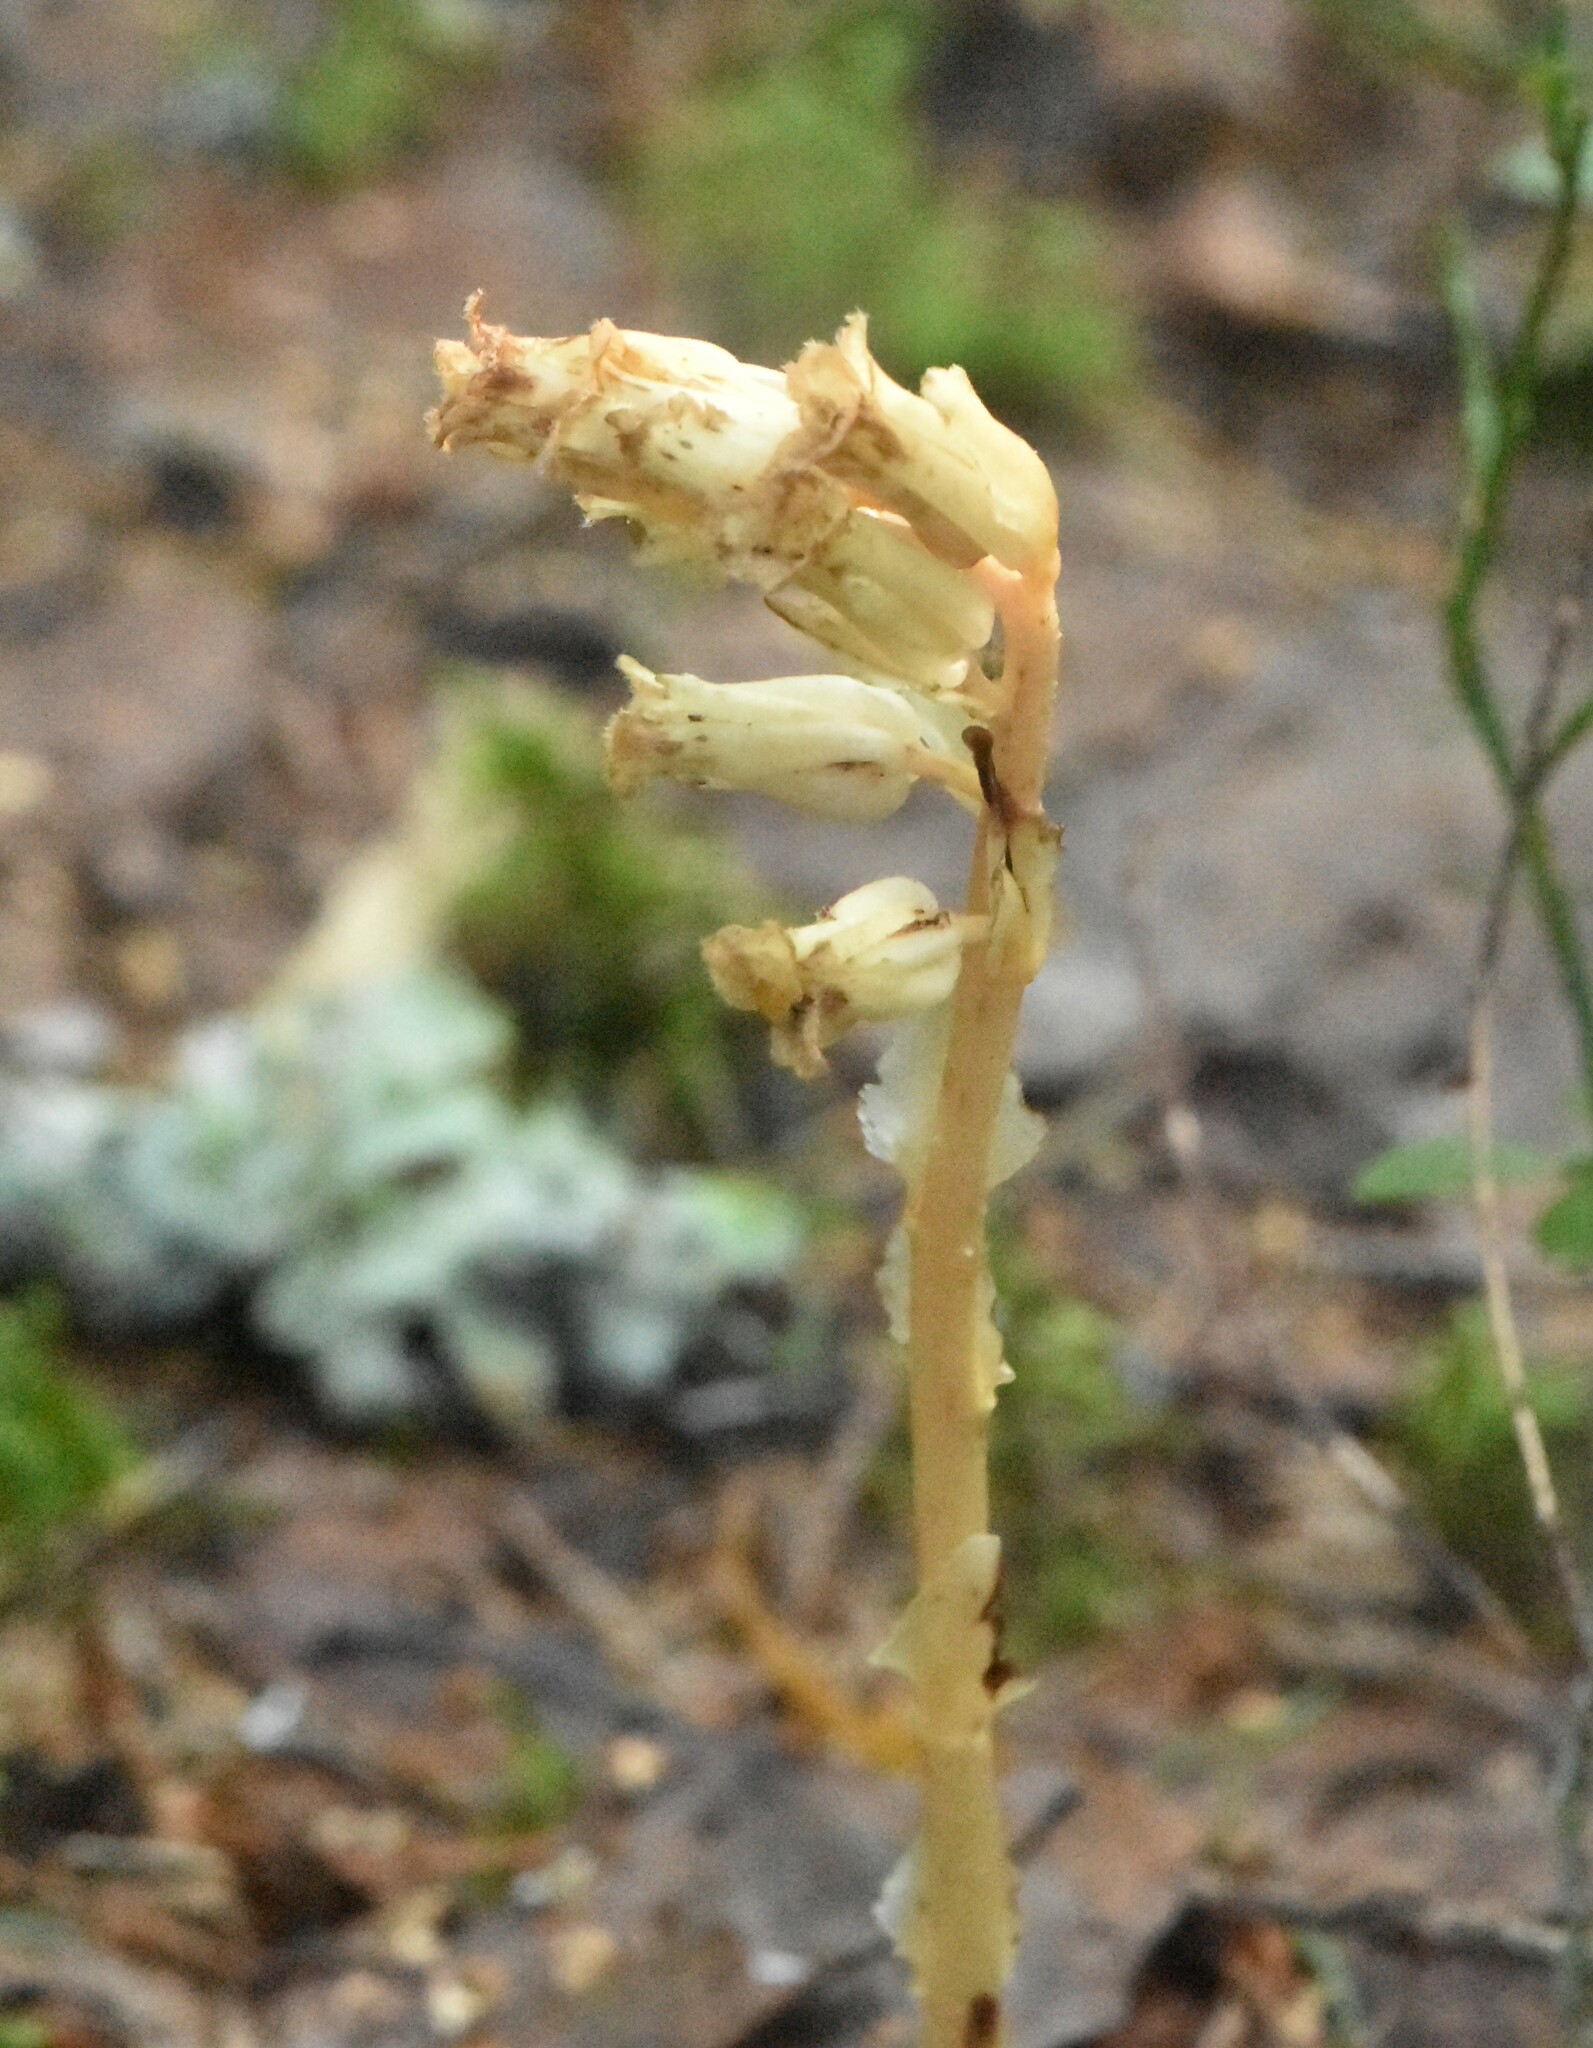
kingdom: Plantae
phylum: Tracheophyta
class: Magnoliopsida
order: Ericales
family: Ericaceae
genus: Hypopitys
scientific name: Hypopitys monotropa
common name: Yellow bird's-nest
